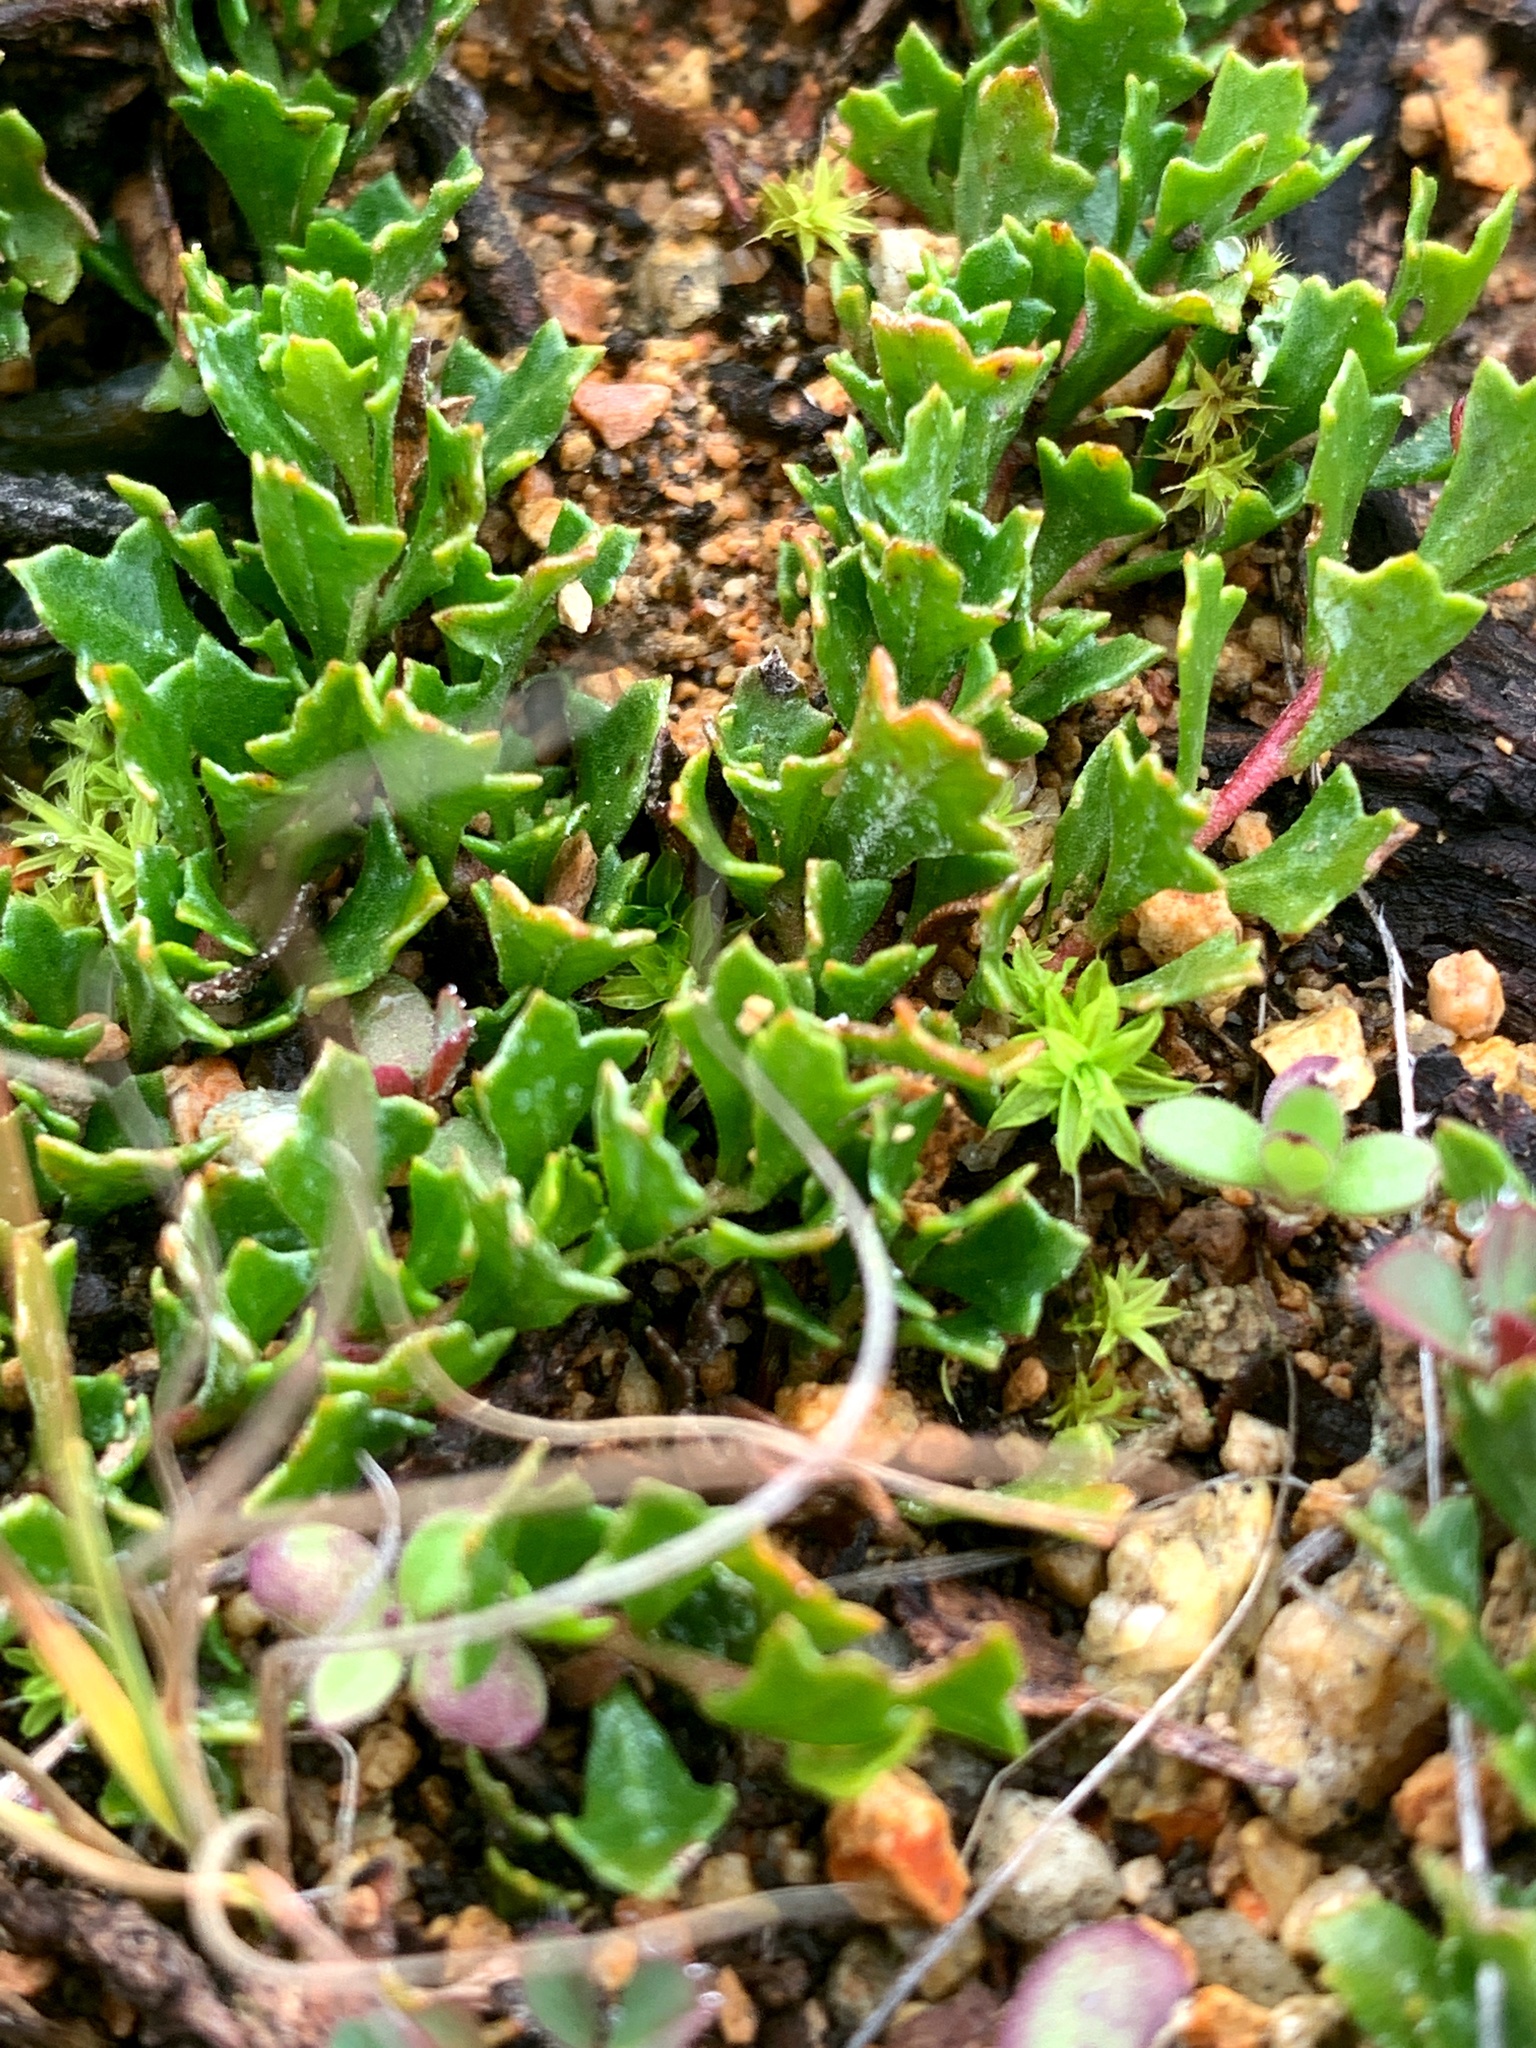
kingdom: Plantae
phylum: Tracheophyta
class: Magnoliopsida
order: Sapindales
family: Sapindaceae
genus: Dodonaea
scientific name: Dodonaea procumbens
